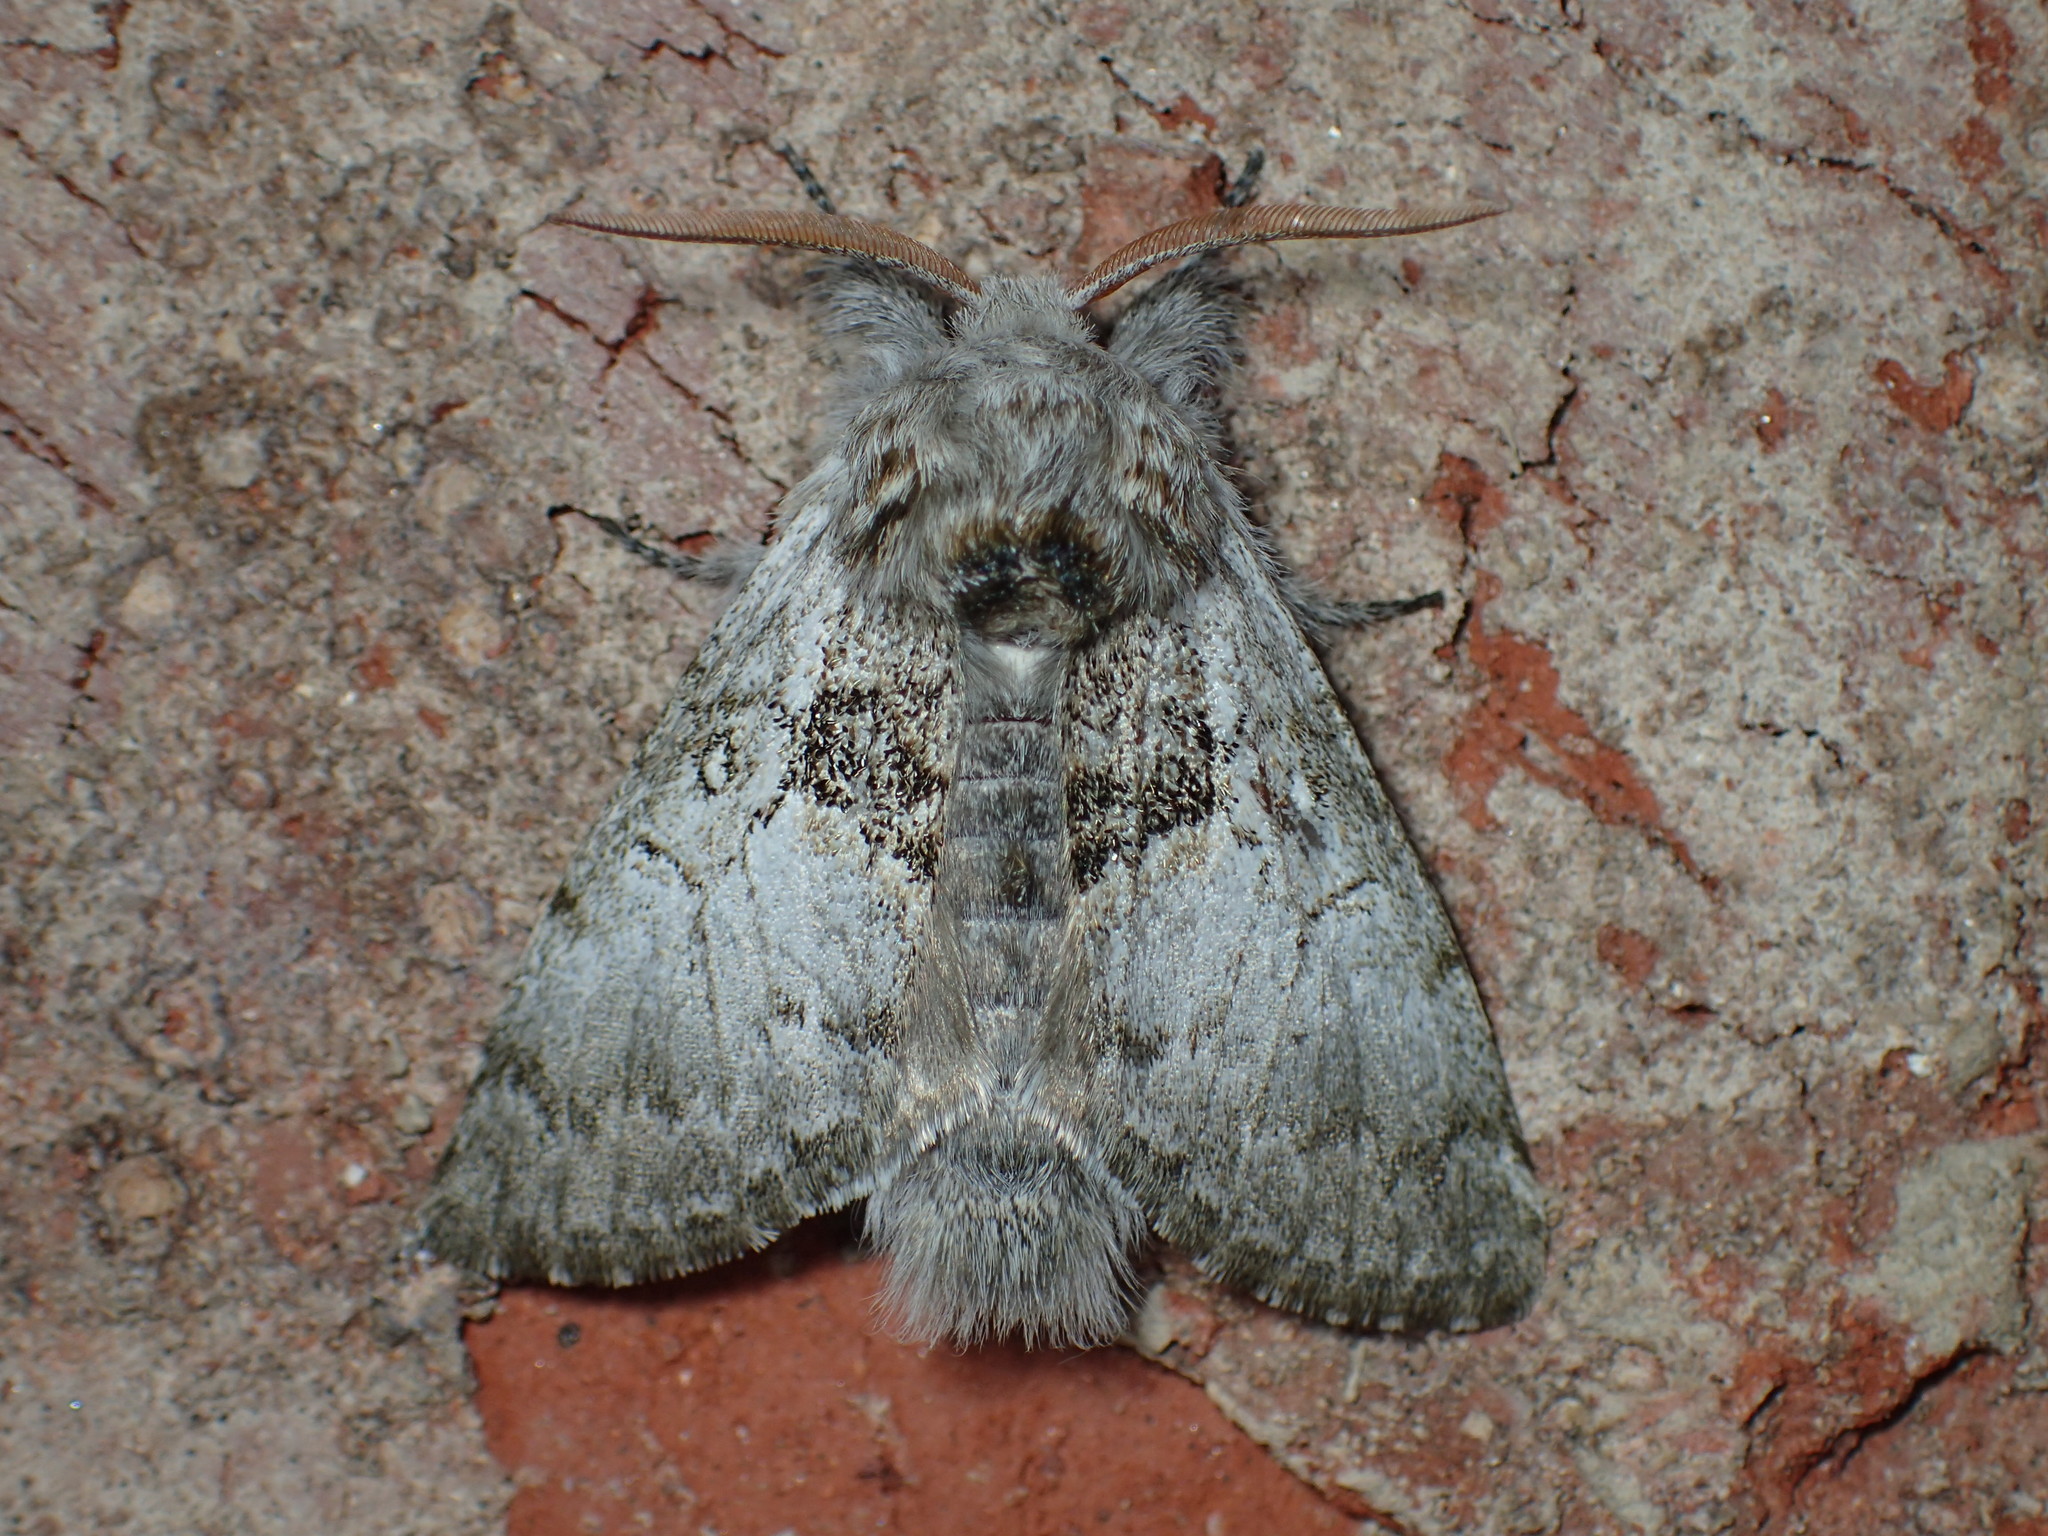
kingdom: Animalia
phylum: Arthropoda
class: Insecta
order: Lepidoptera
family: Noctuidae
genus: Colocasia
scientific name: Colocasia flavicornis
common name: Saddled yellowhorn
